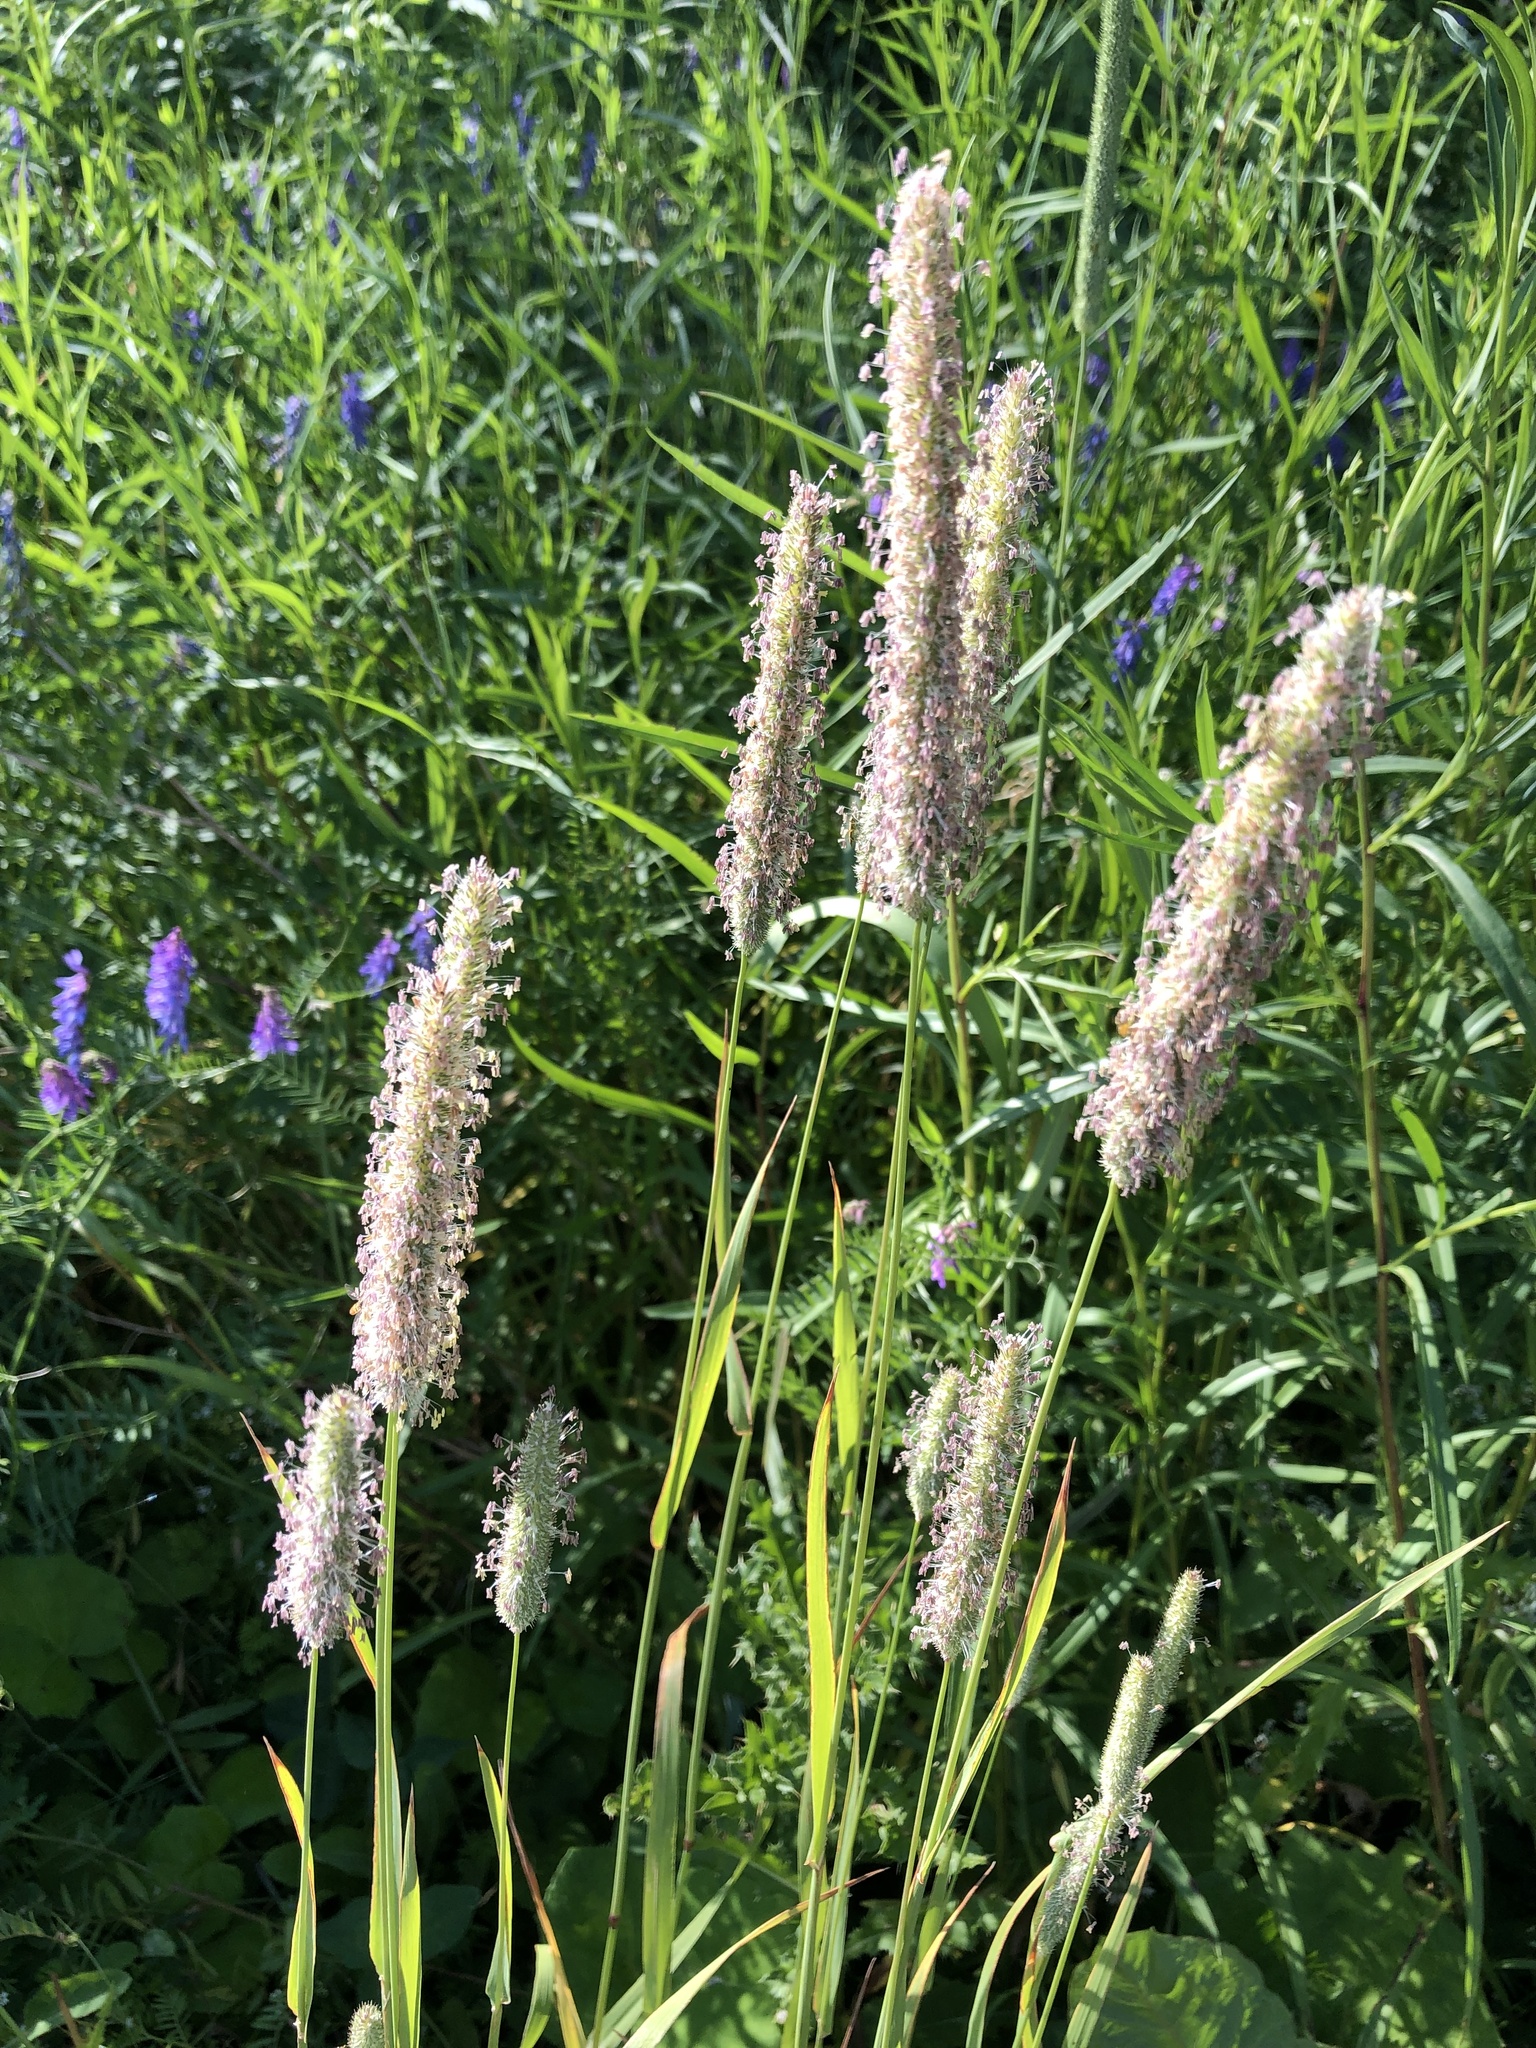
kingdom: Plantae
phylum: Tracheophyta
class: Liliopsida
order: Poales
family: Poaceae
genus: Phleum
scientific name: Phleum pratense
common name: Timothy grass
